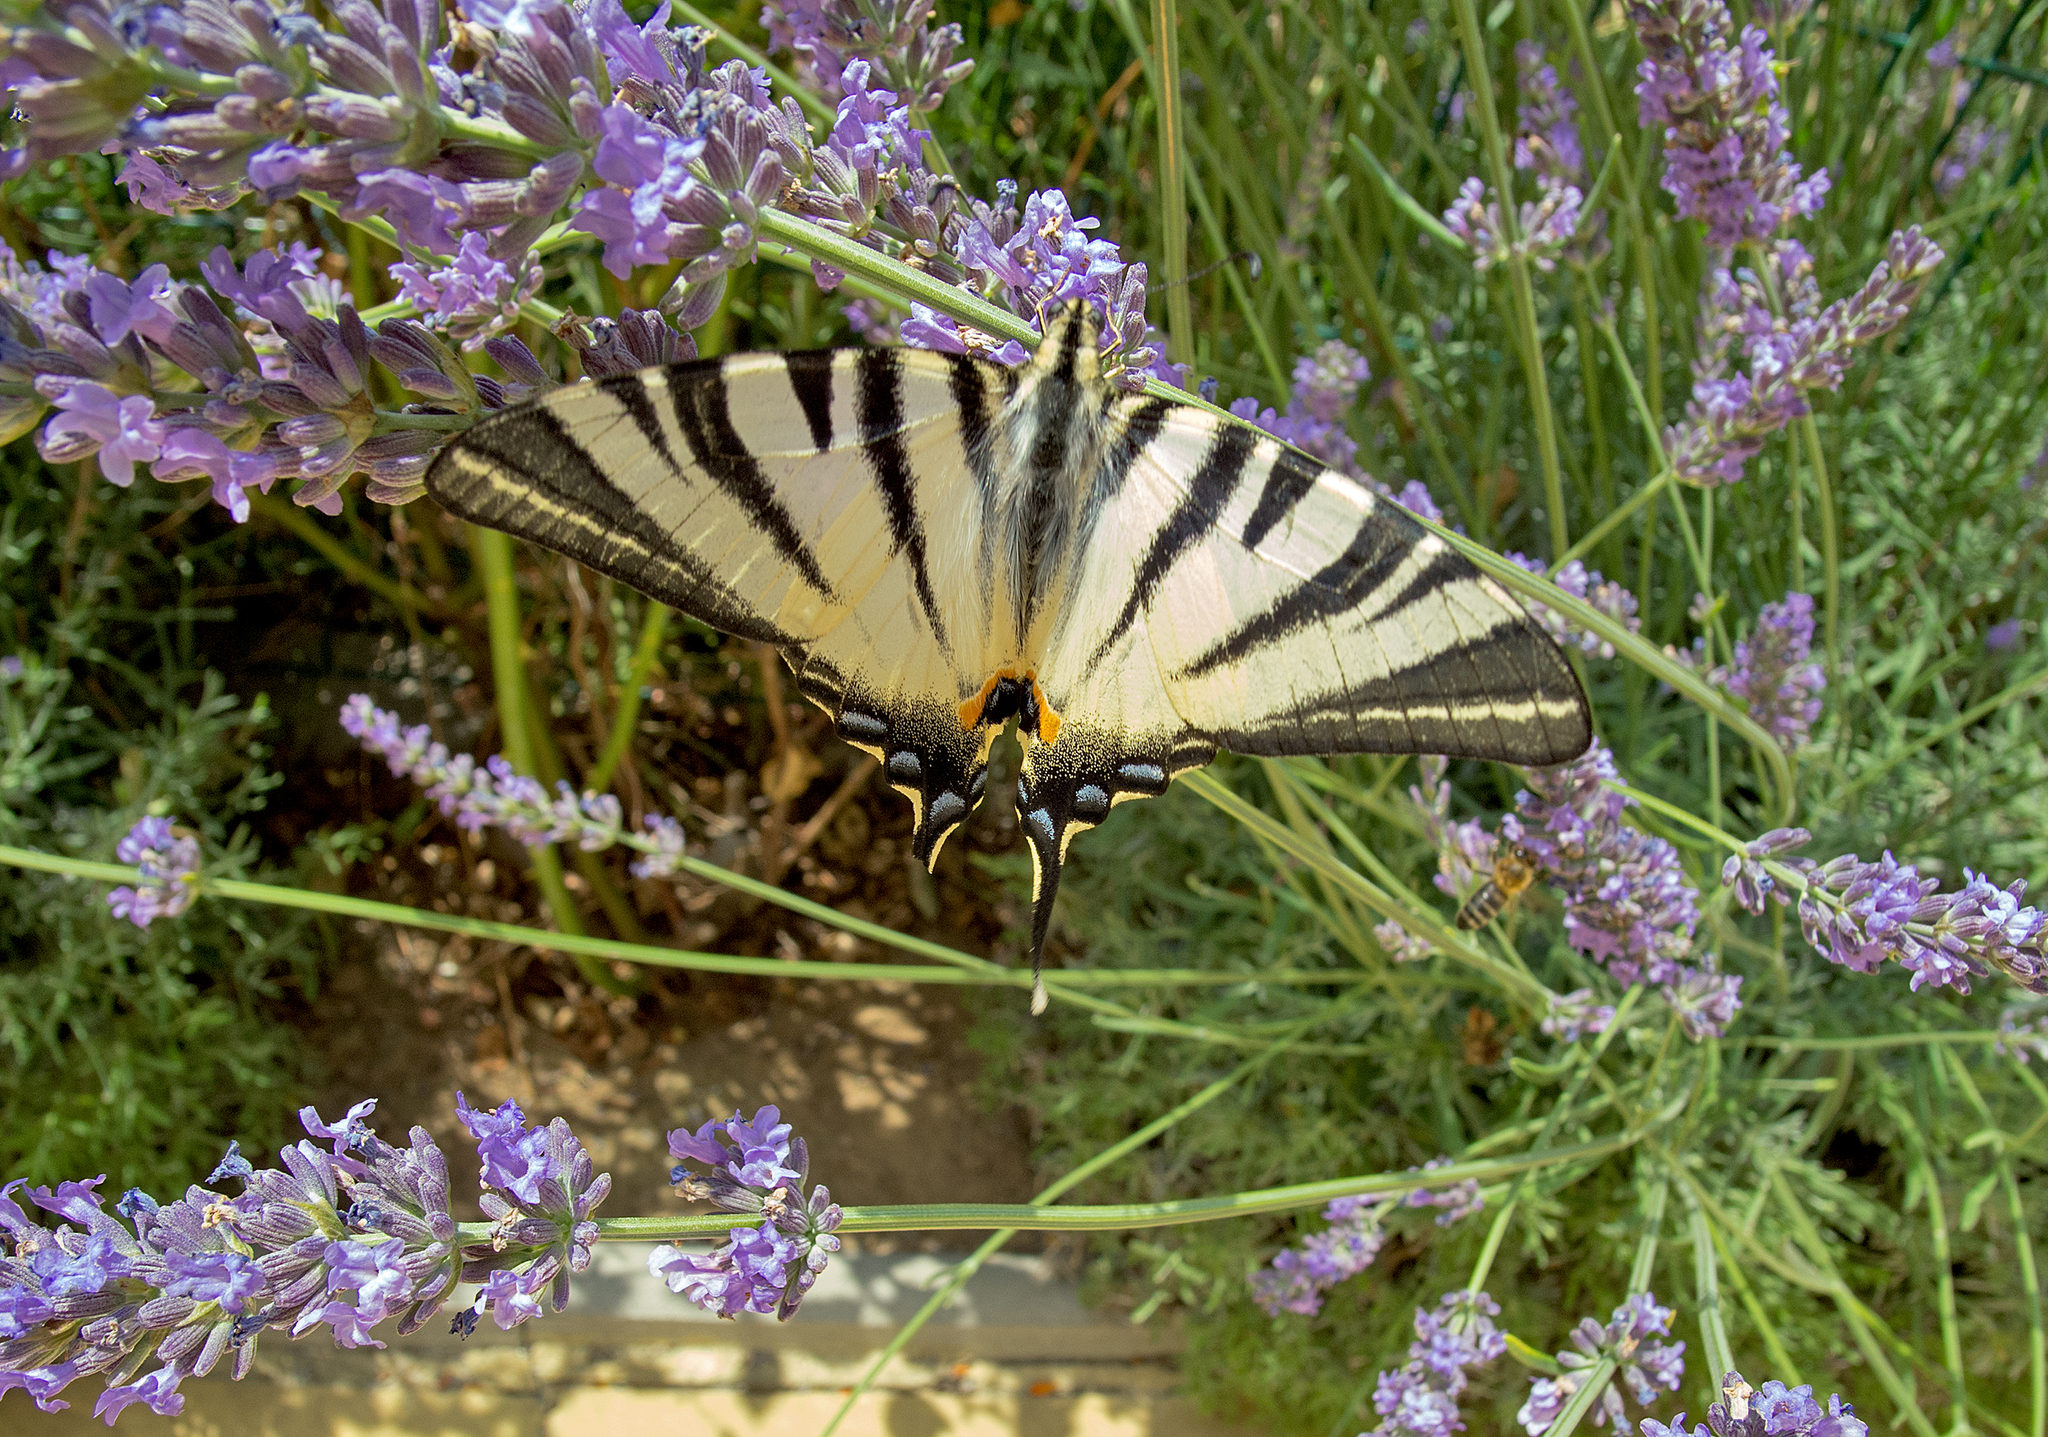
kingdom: Animalia
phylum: Arthropoda
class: Insecta
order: Lepidoptera
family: Papilionidae
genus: Iphiclides
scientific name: Iphiclides podalirius
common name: Scarce swallowtail
